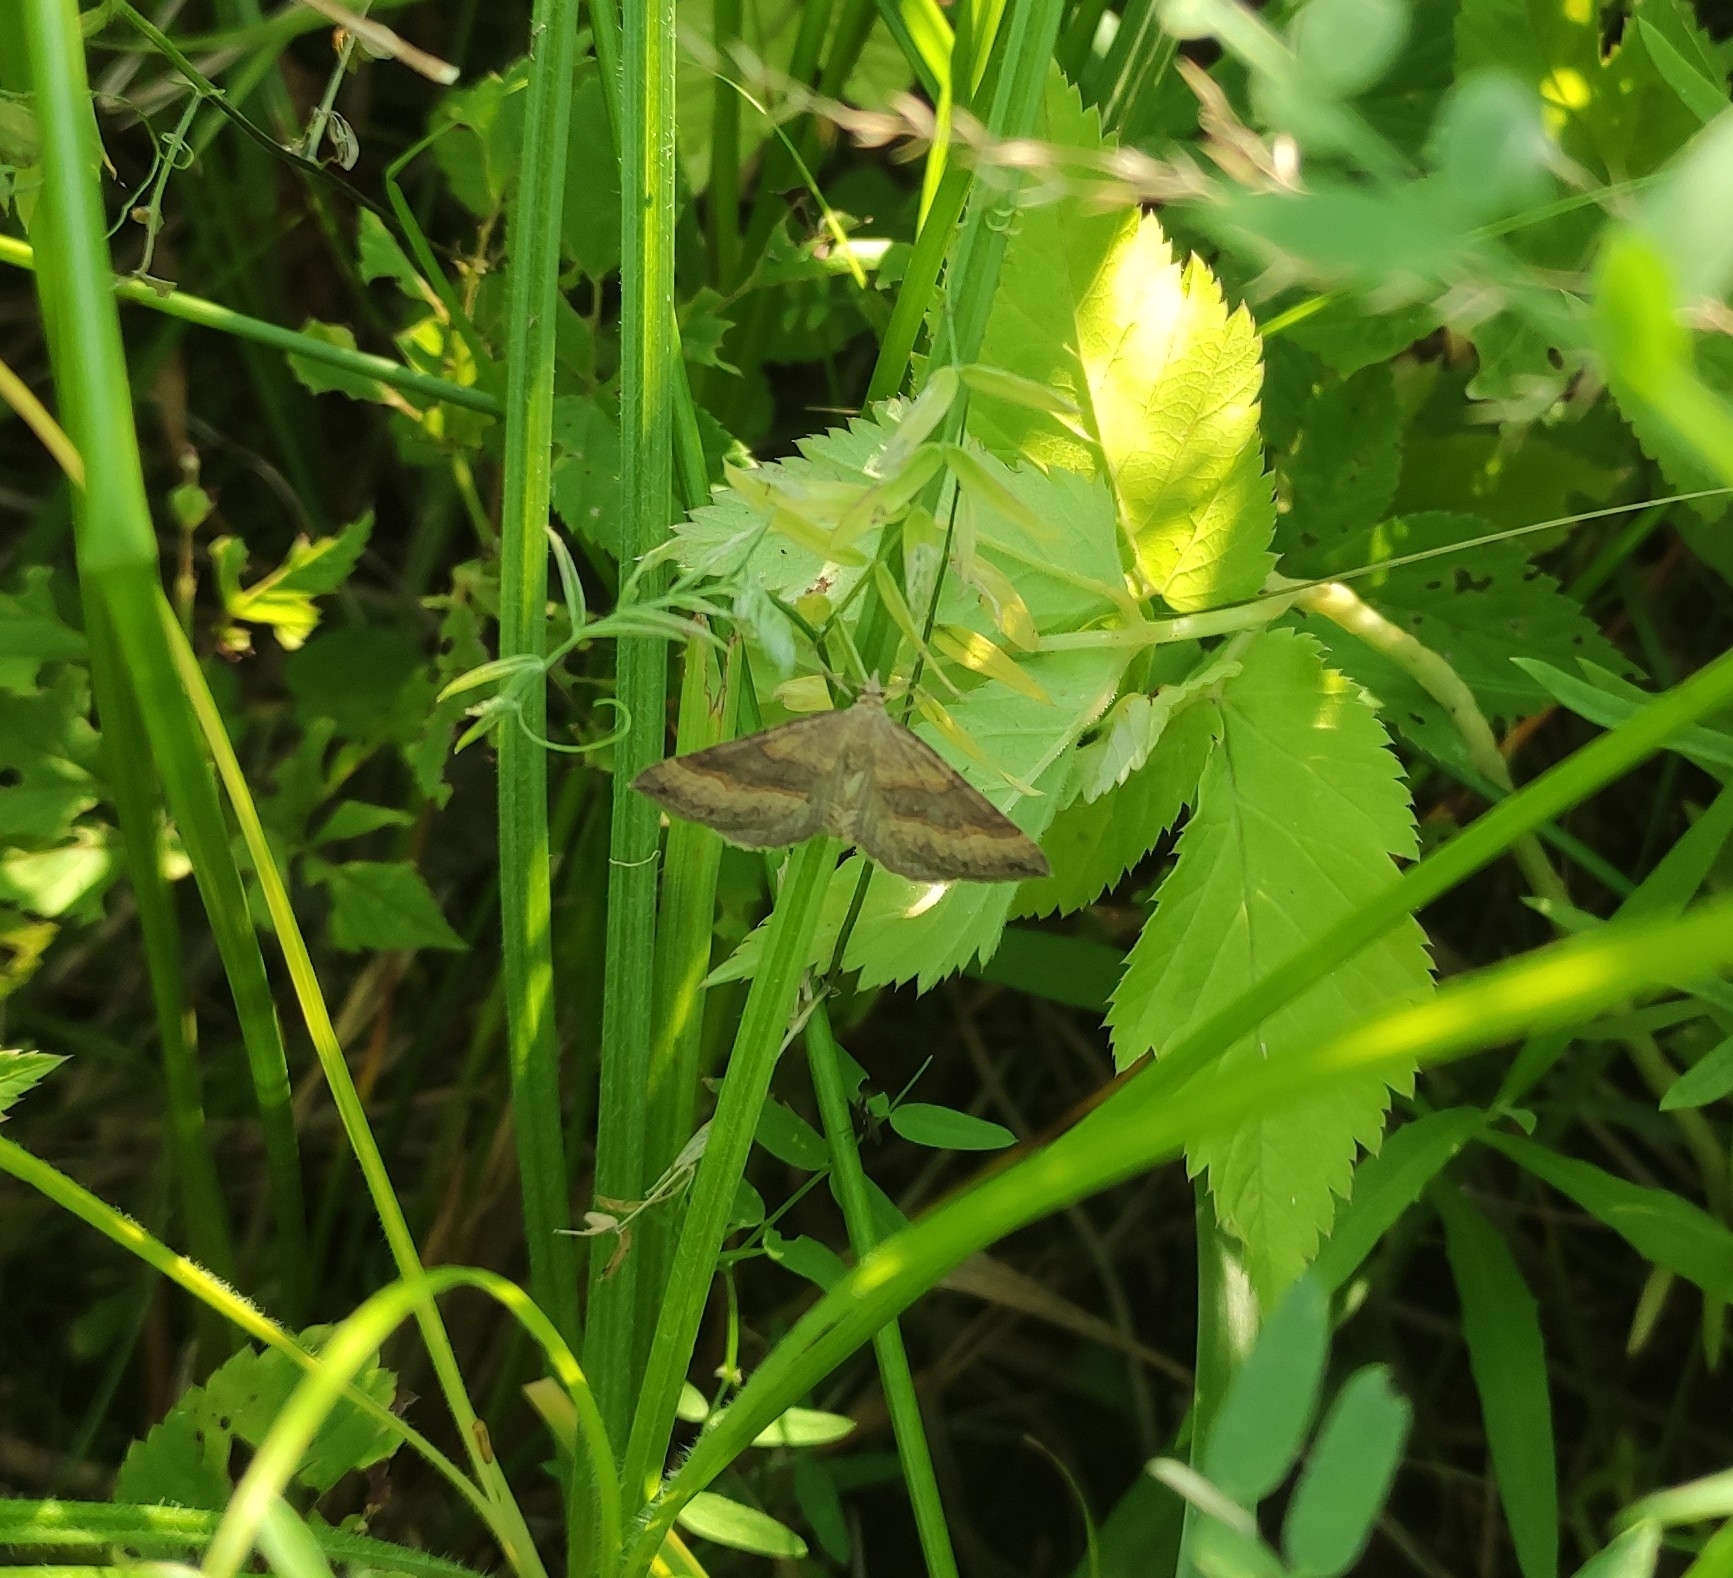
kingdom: Animalia
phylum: Arthropoda
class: Insecta
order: Lepidoptera
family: Geometridae
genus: Scotopteryx
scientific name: Scotopteryx chenopodiata
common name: Shaded broad-bar
